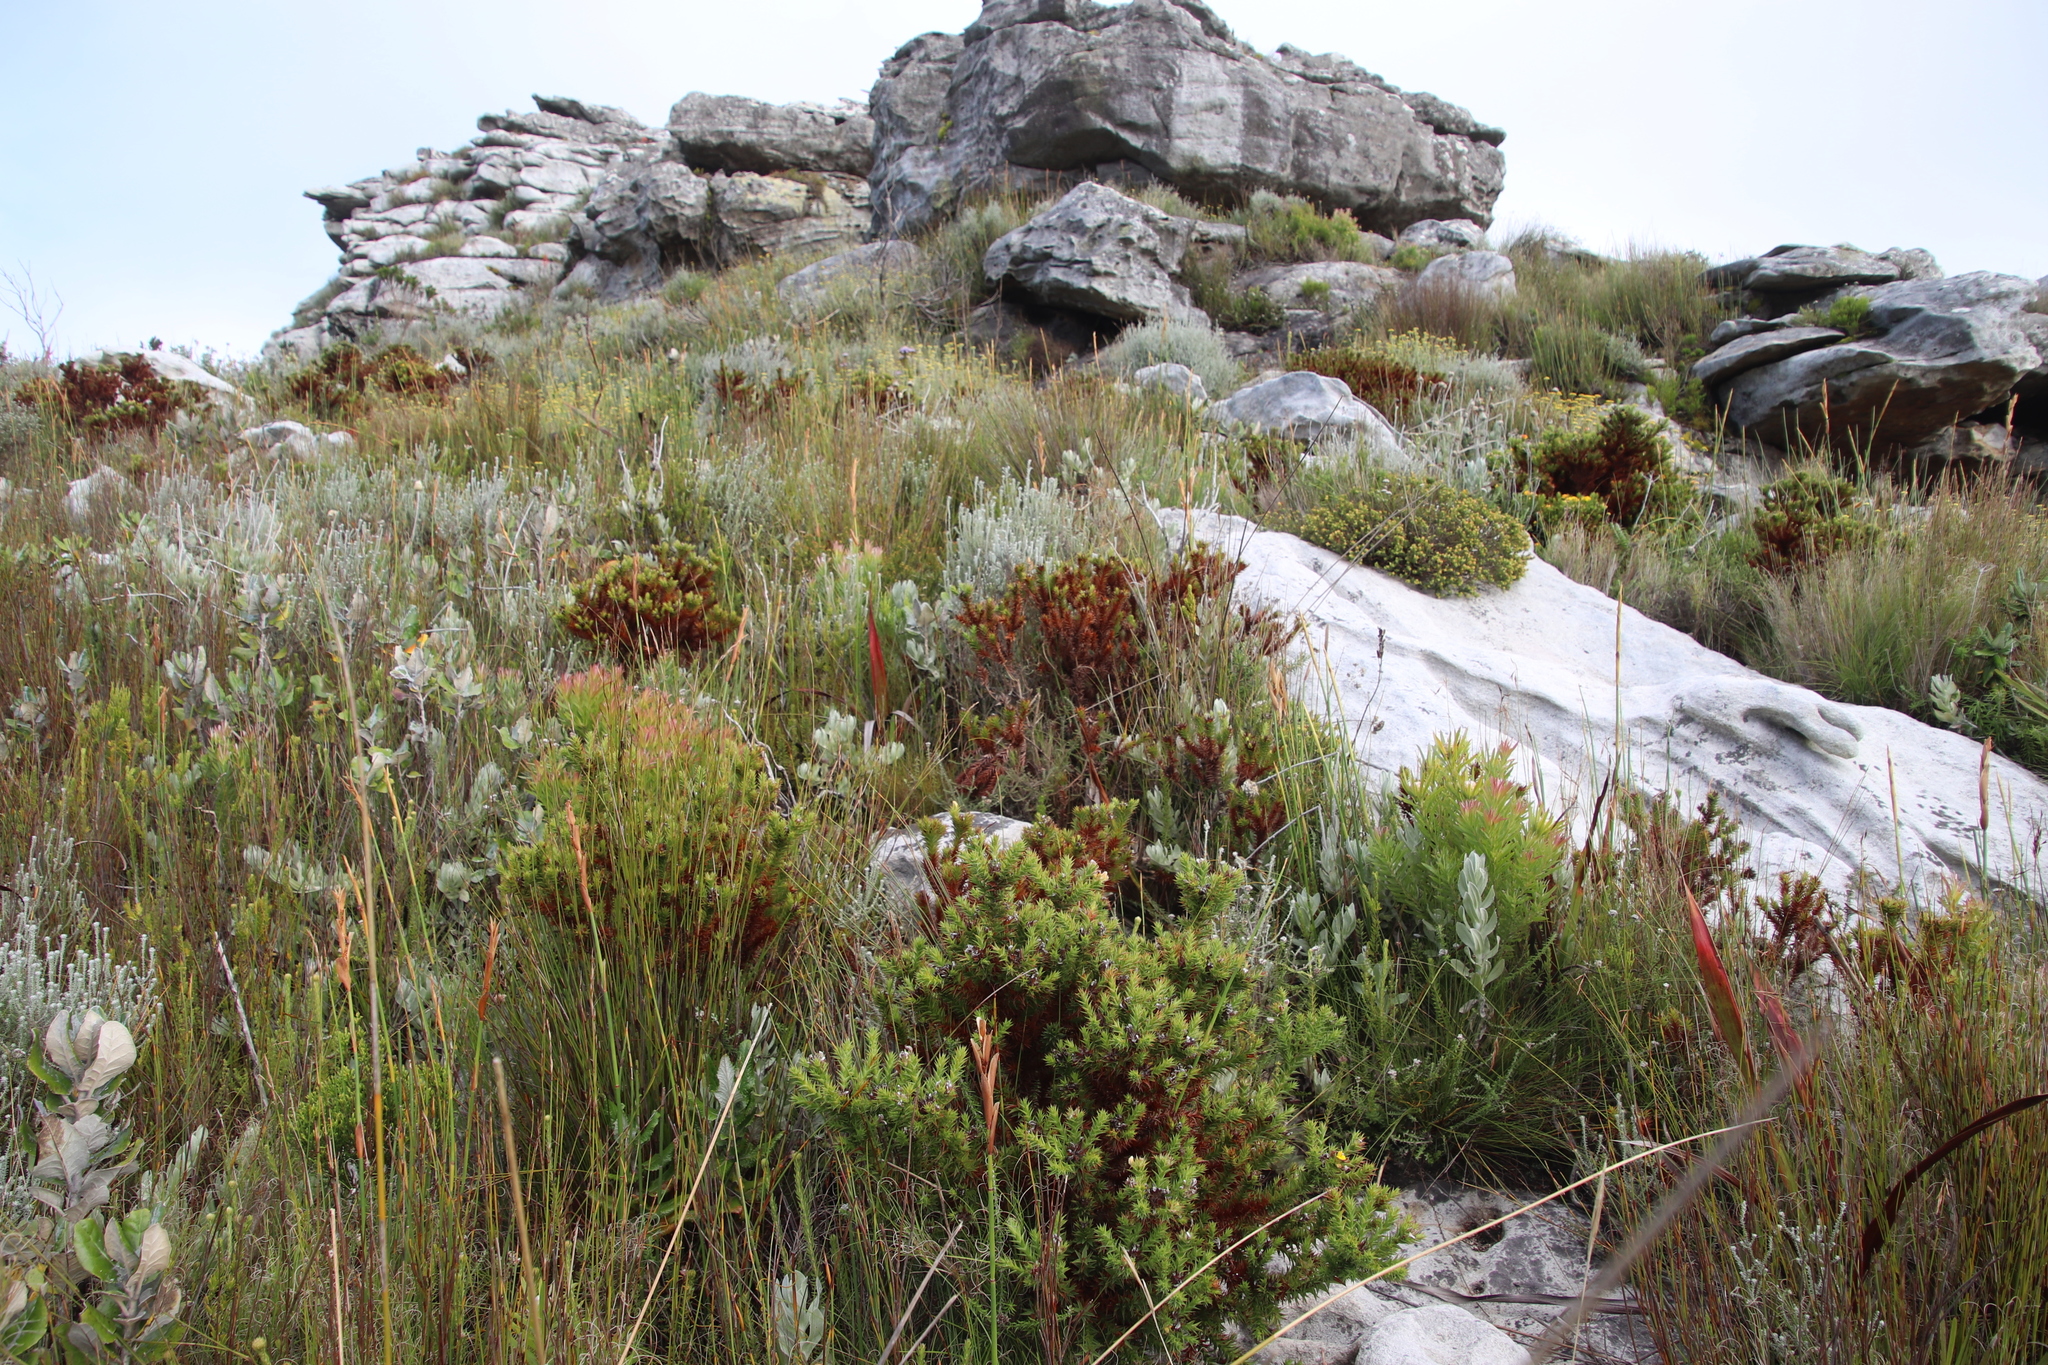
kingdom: Plantae
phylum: Tracheophyta
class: Magnoliopsida
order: Fabales
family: Fabaceae
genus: Aspalathus
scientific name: Aspalathus barbata
